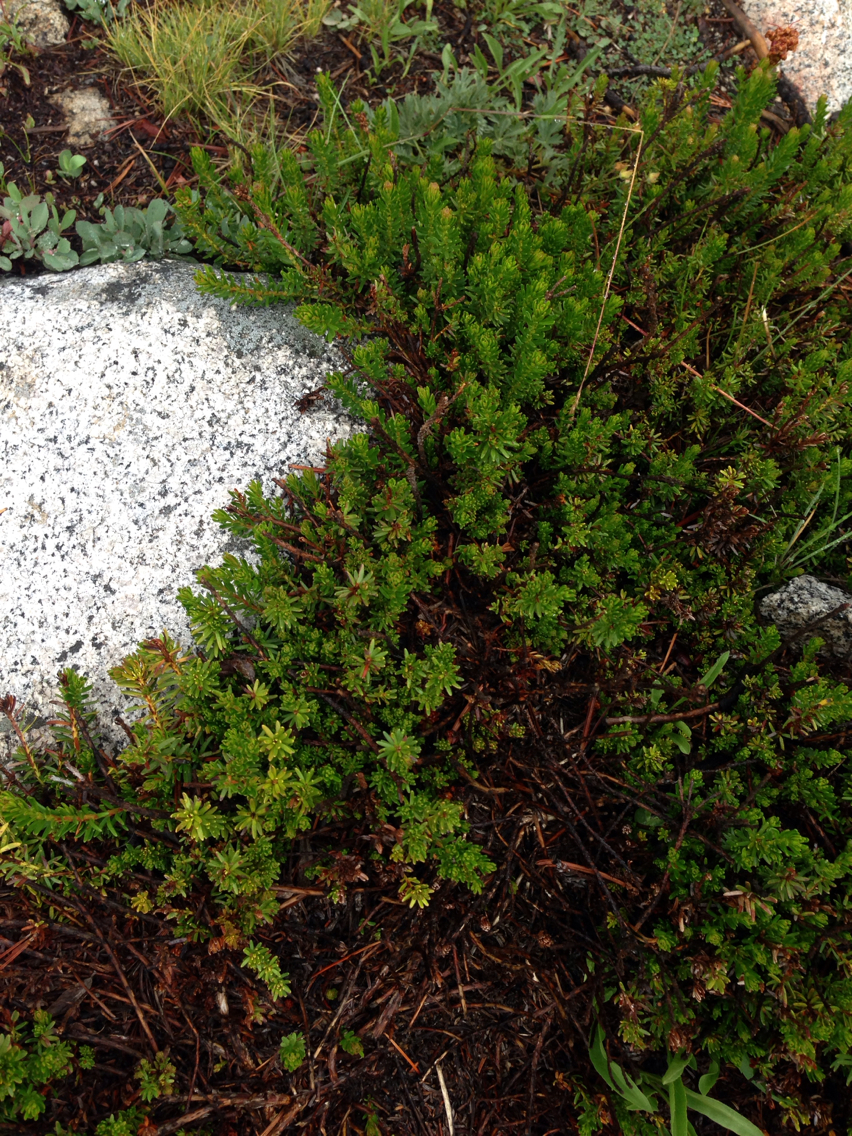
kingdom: Plantae
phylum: Tracheophyta
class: Magnoliopsida
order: Ericales
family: Ericaceae
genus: Phyllodoce
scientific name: Phyllodoce breweri
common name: Brewer's mountain-heather
